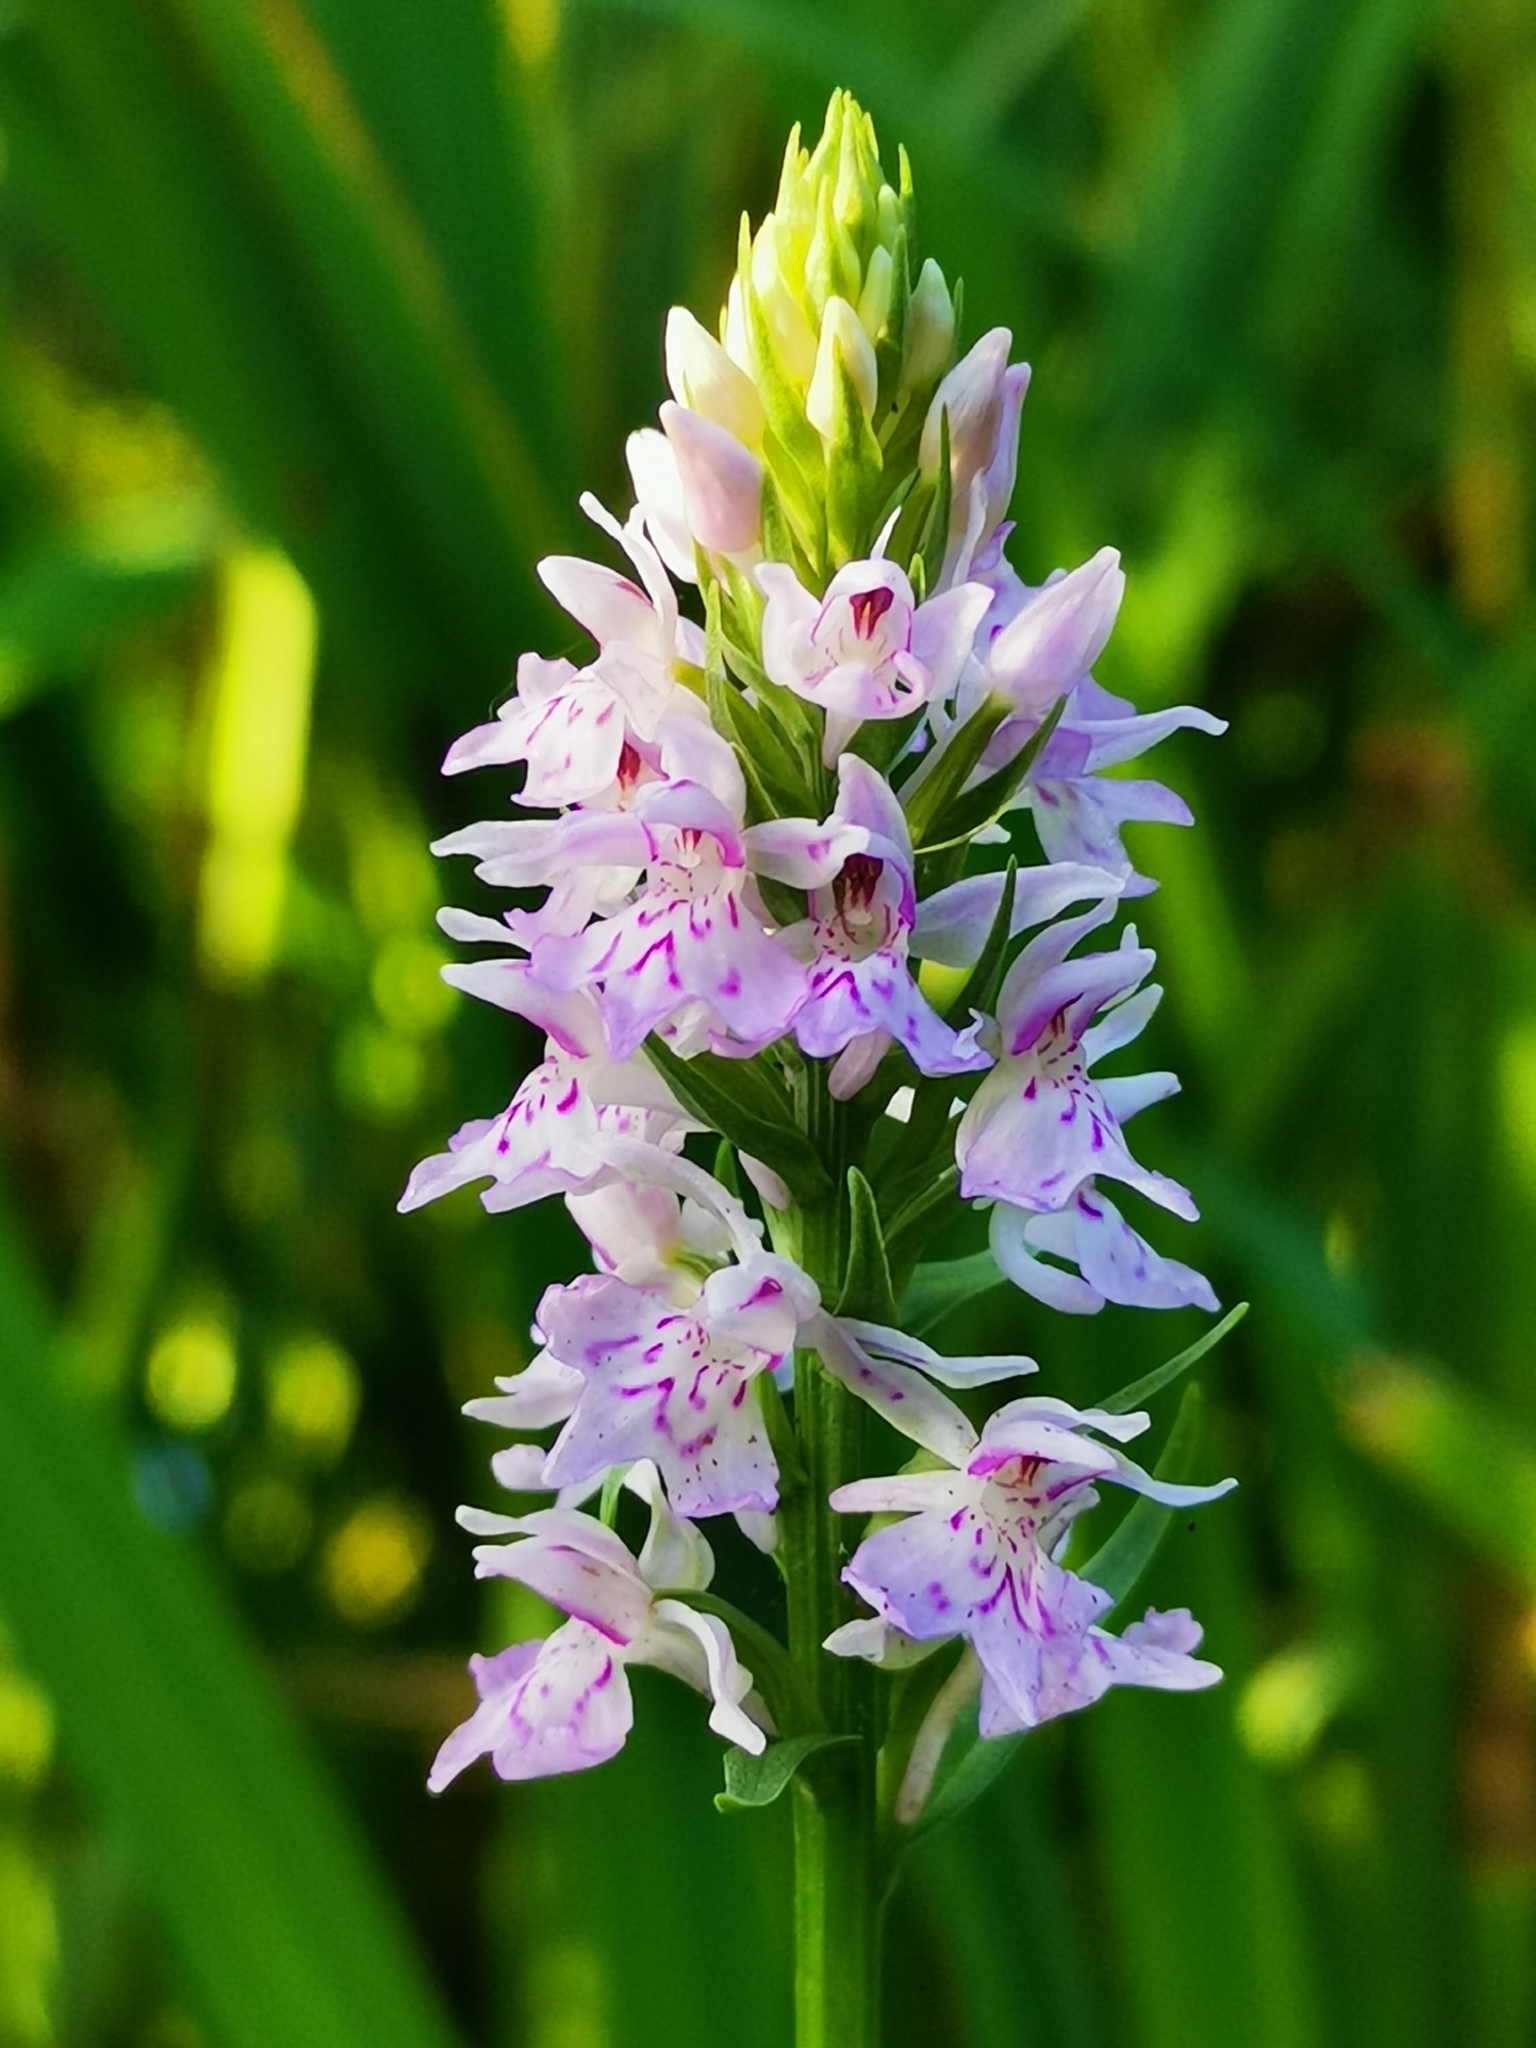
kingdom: Plantae
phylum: Tracheophyta
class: Liliopsida
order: Asparagales
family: Orchidaceae
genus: Dactylorhiza
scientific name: Dactylorhiza maculata
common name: Heath spotted-orchid
